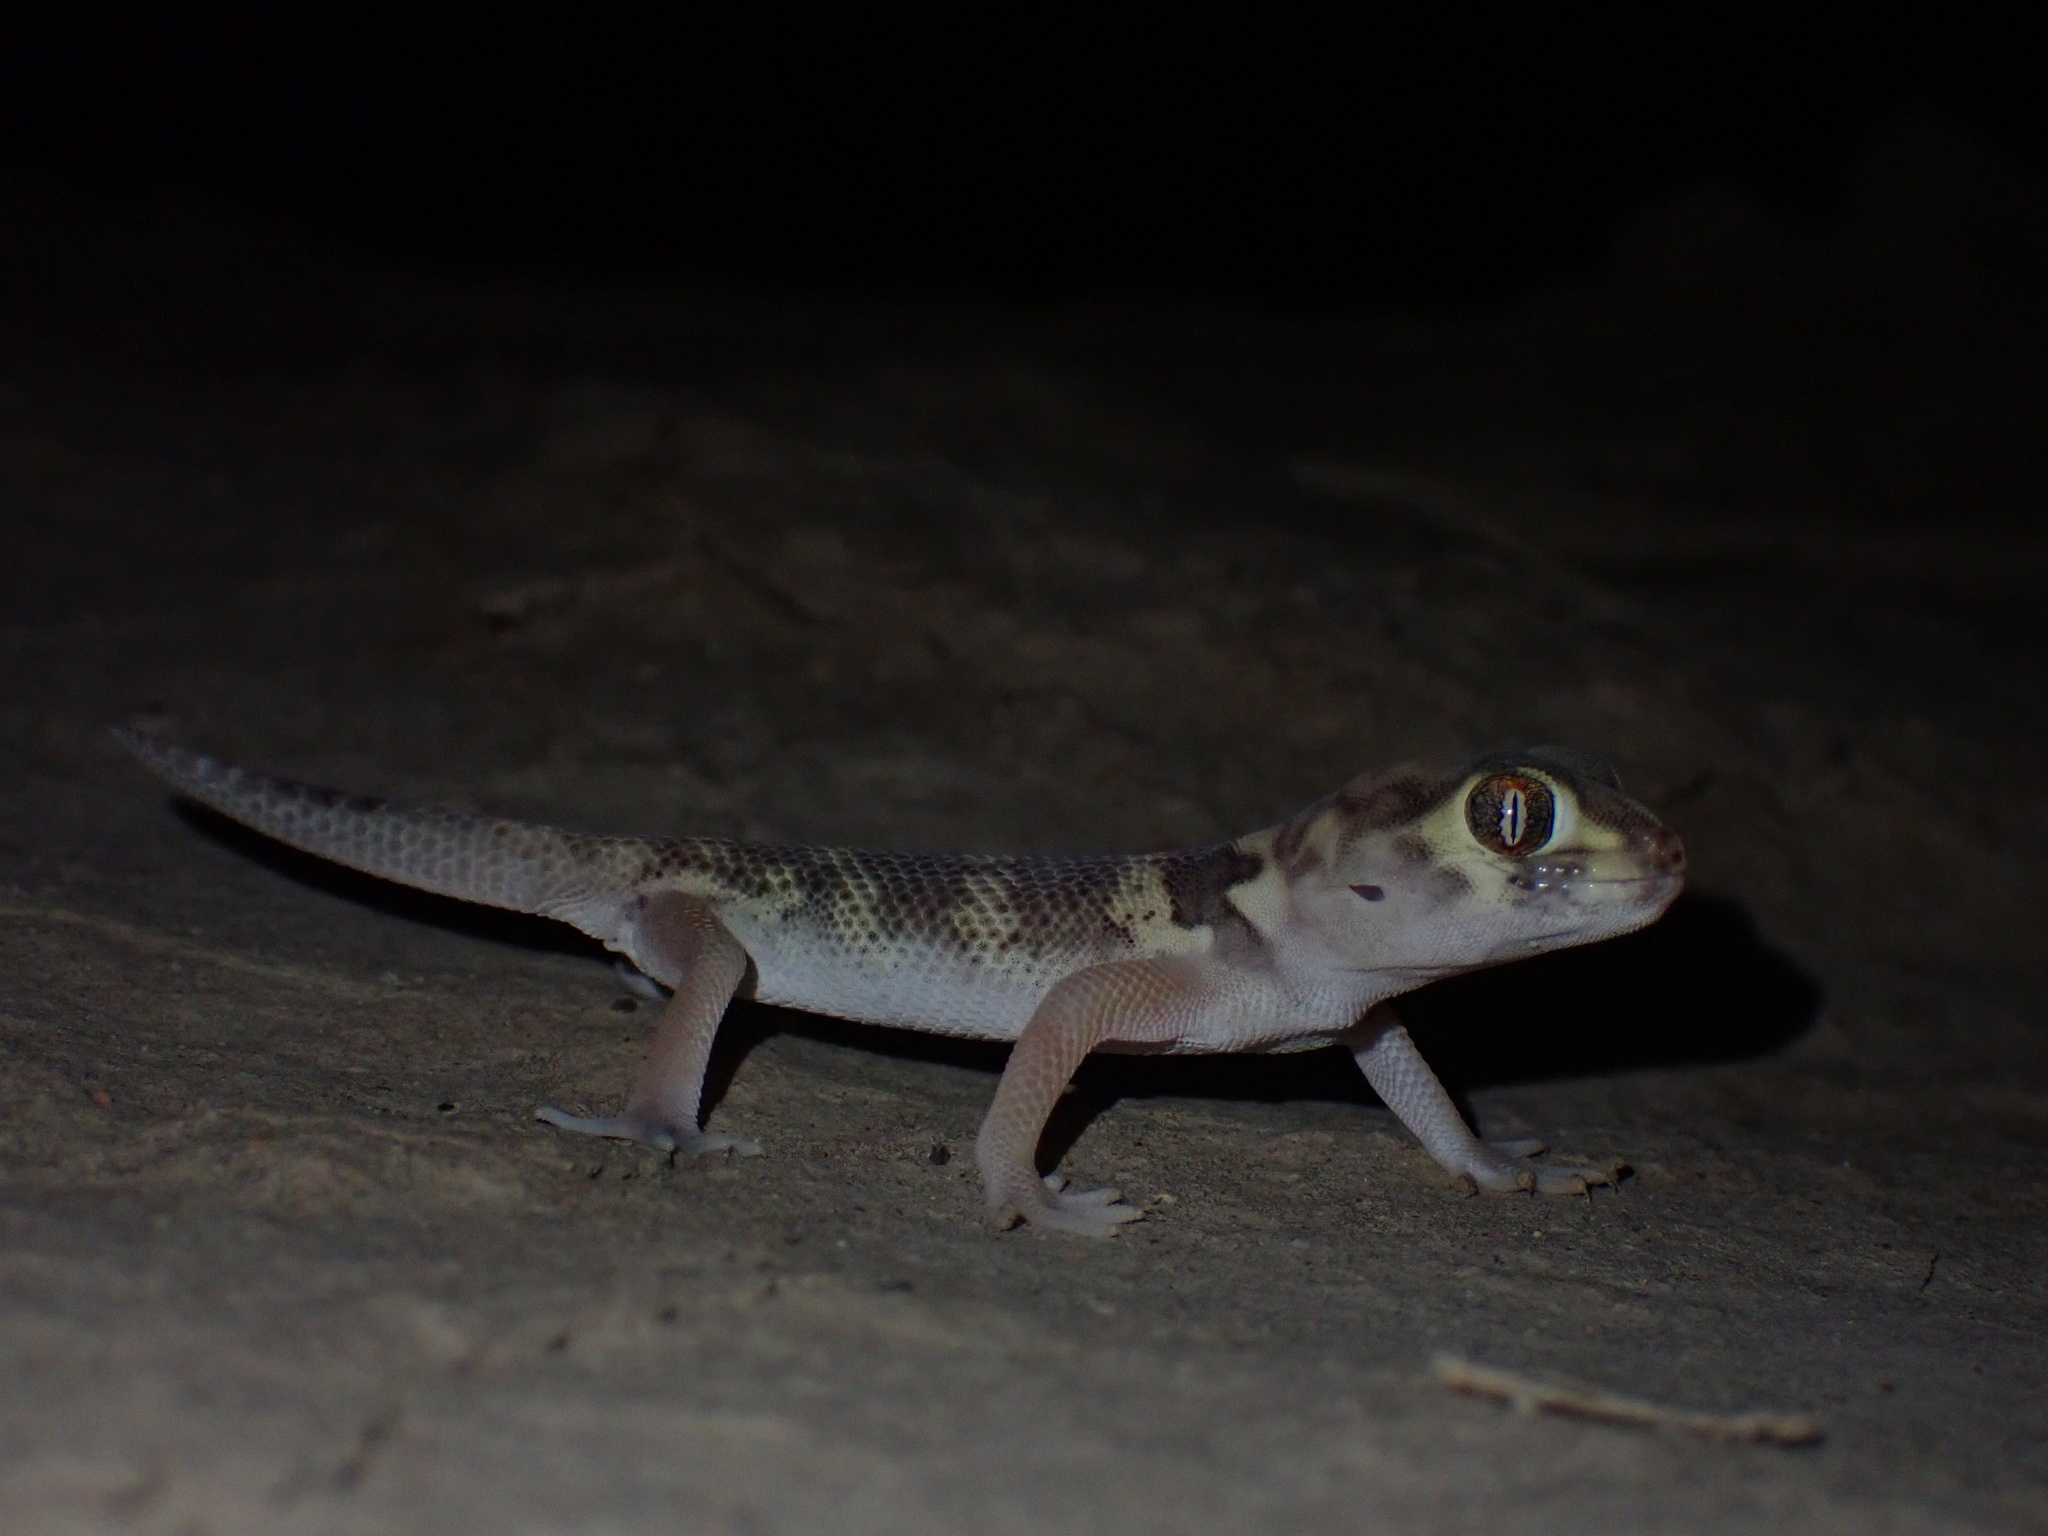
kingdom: Animalia
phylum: Chordata
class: Squamata
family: Sphaerodactylidae
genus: Teratoscincus
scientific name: Teratoscincus bedriagai
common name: Bedriaga's plate-tailed gecko
